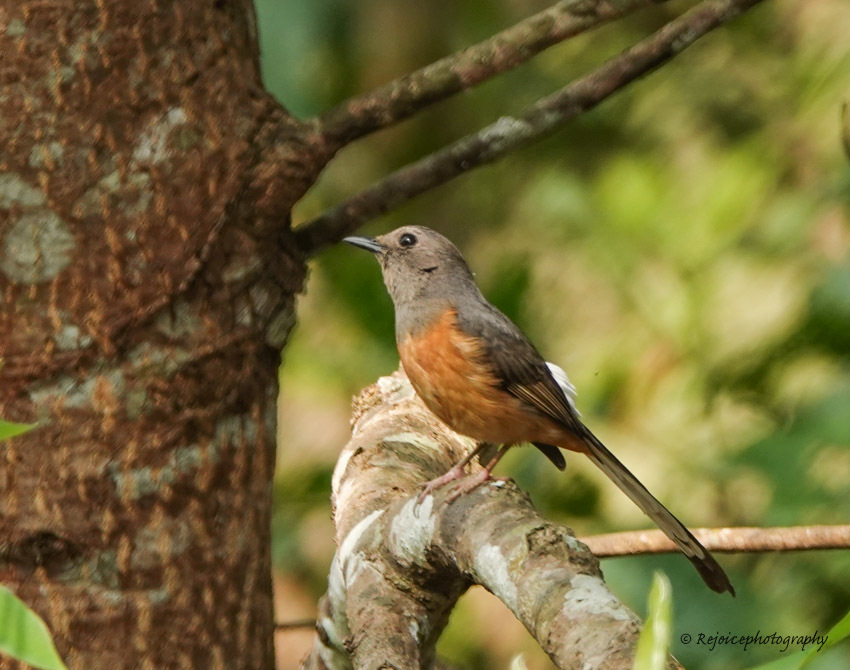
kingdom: Animalia
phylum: Chordata
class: Aves
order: Passeriformes
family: Muscicapidae
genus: Copsychus
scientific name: Copsychus malabaricus
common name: White-rumped shama
